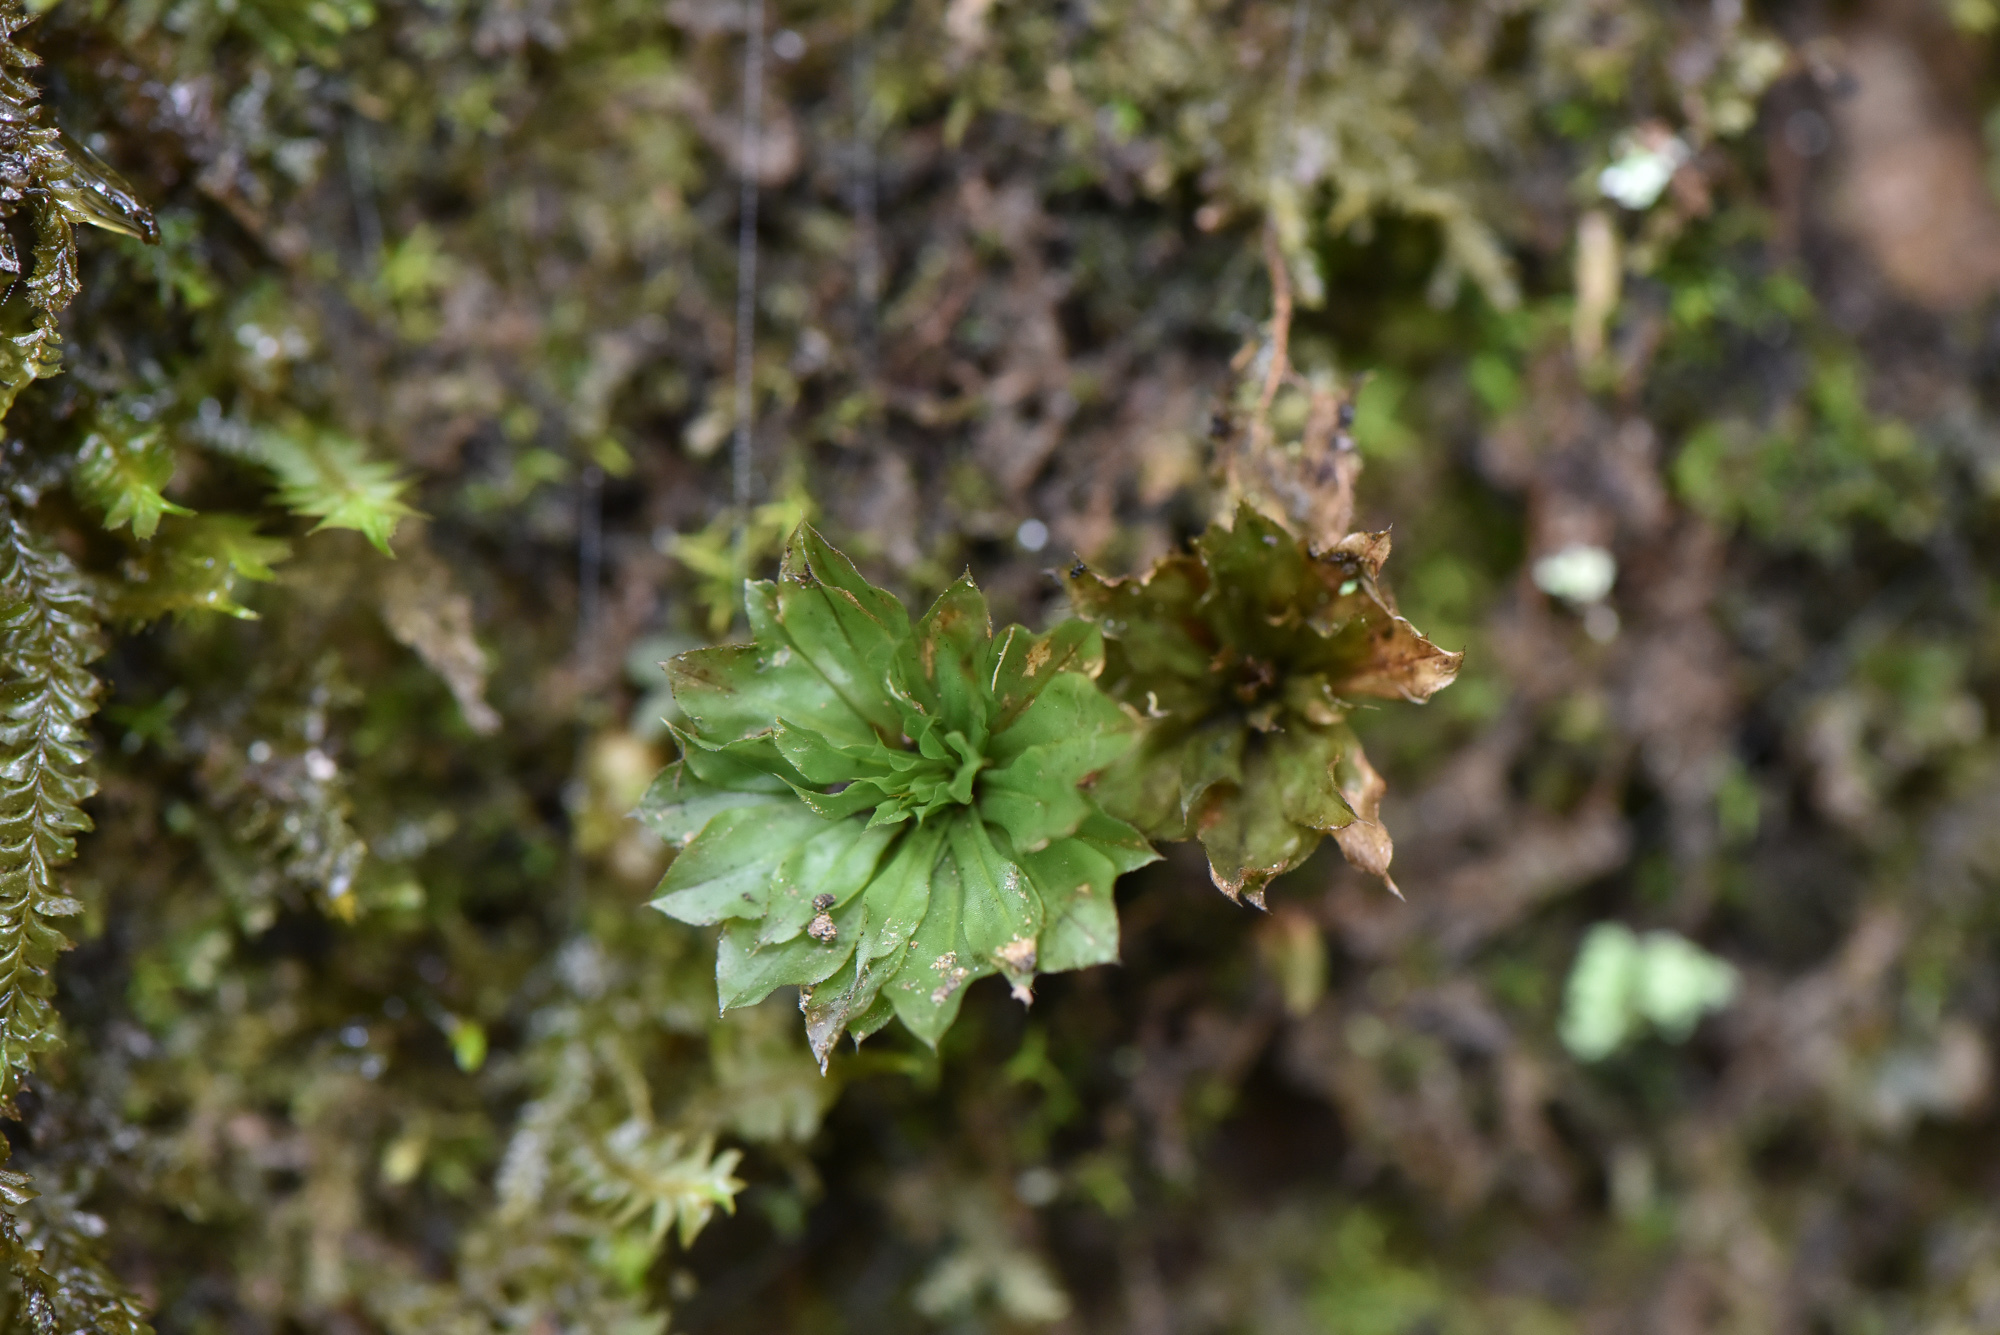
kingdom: Plantae
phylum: Bryophyta
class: Bryopsida
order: Bryales
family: Bryaceae
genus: Rhodobryum
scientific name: Rhodobryum giganteum
